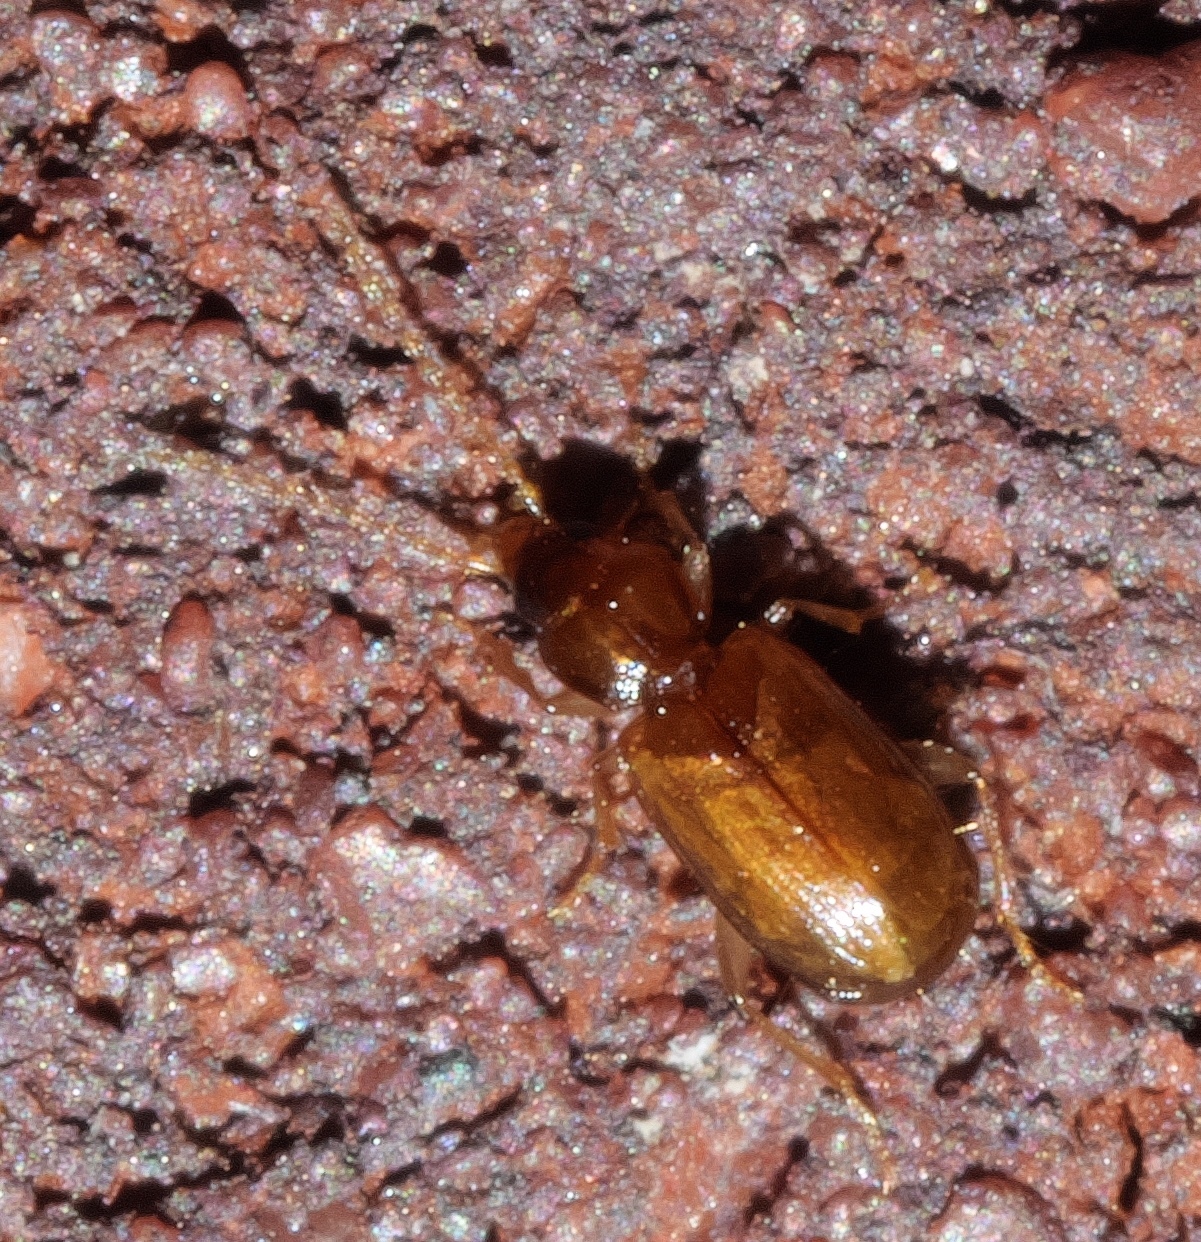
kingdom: Animalia
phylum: Arthropoda
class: Insecta
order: Coleoptera
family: Carabidae
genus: Micratopus
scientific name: Micratopus aenescens
